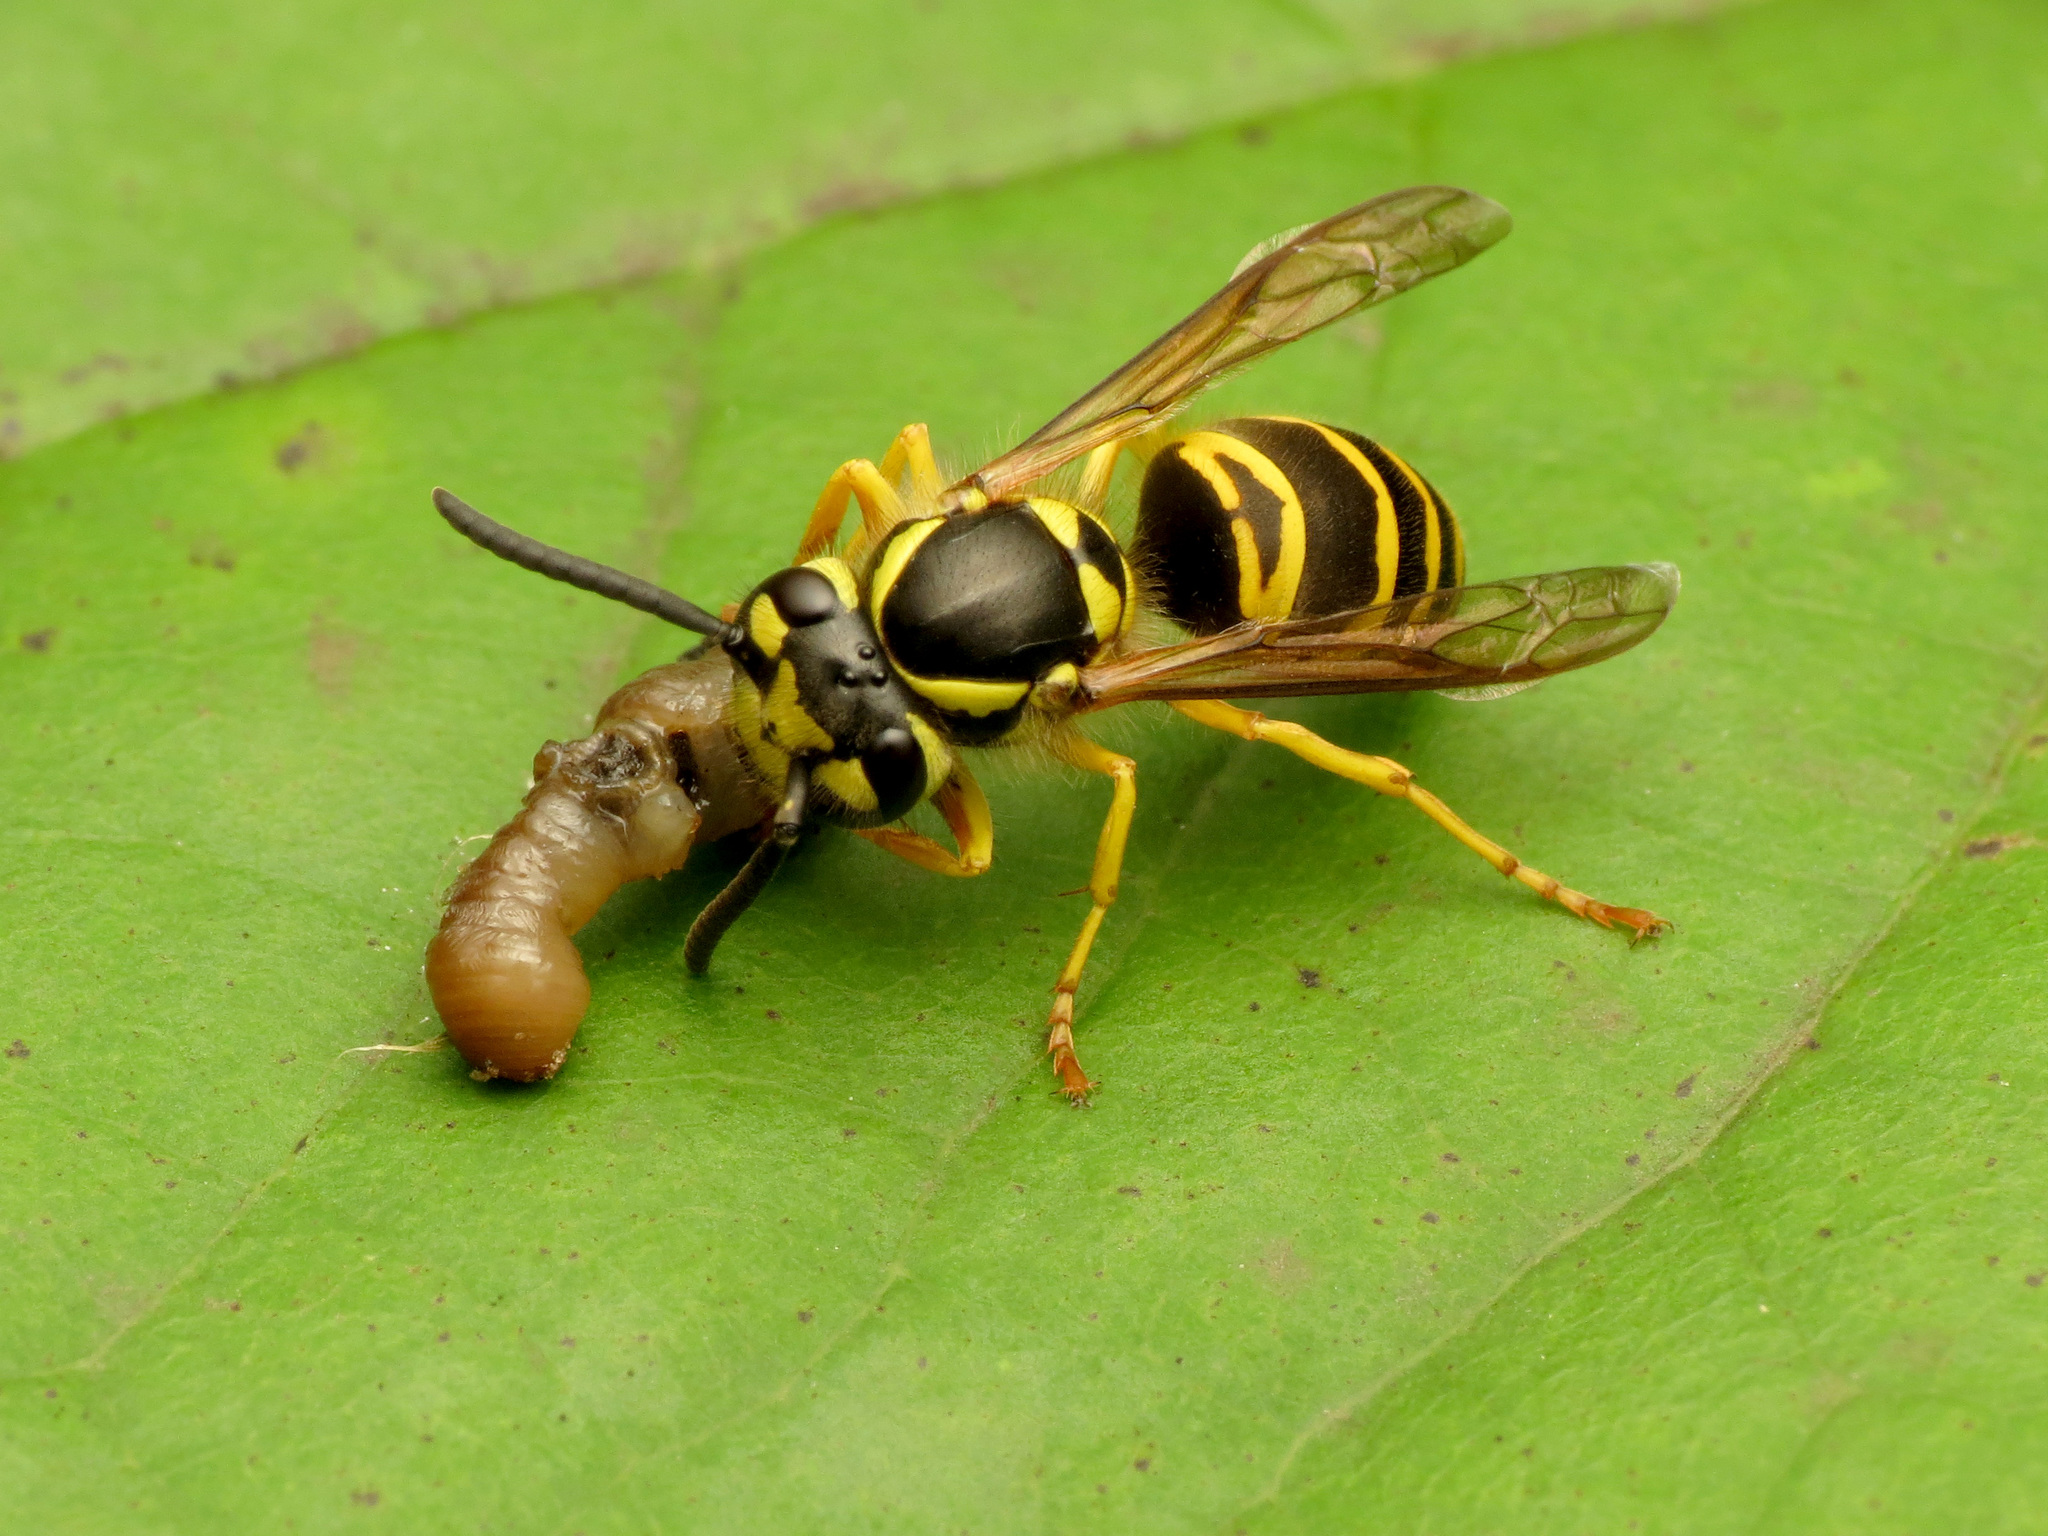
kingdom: Animalia
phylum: Arthropoda
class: Insecta
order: Hymenoptera
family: Vespidae
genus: Vespula
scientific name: Vespula maculifrons
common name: Eastern yellowjacket
